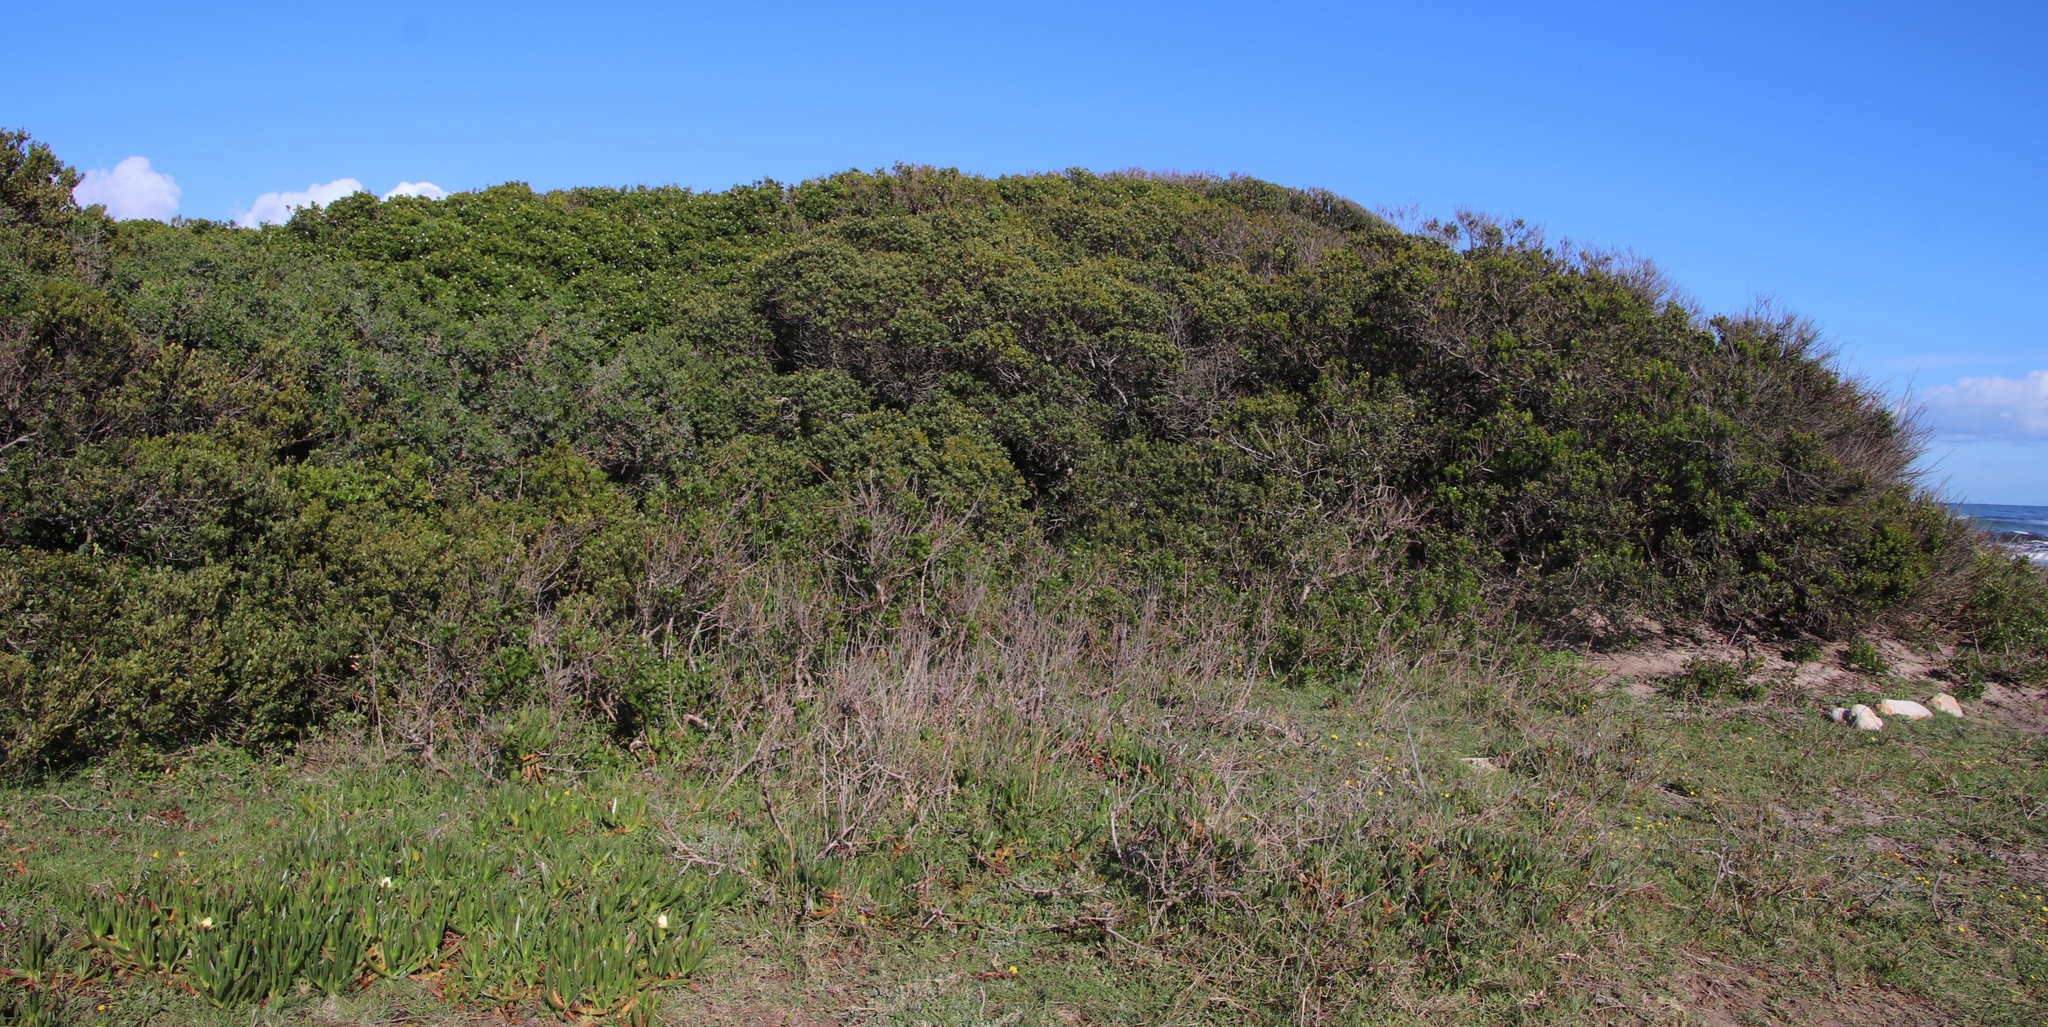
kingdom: Plantae
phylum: Tracheophyta
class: Magnoliopsida
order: Ericales
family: Sapotaceae
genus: Sideroxylon
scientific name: Sideroxylon inerme
